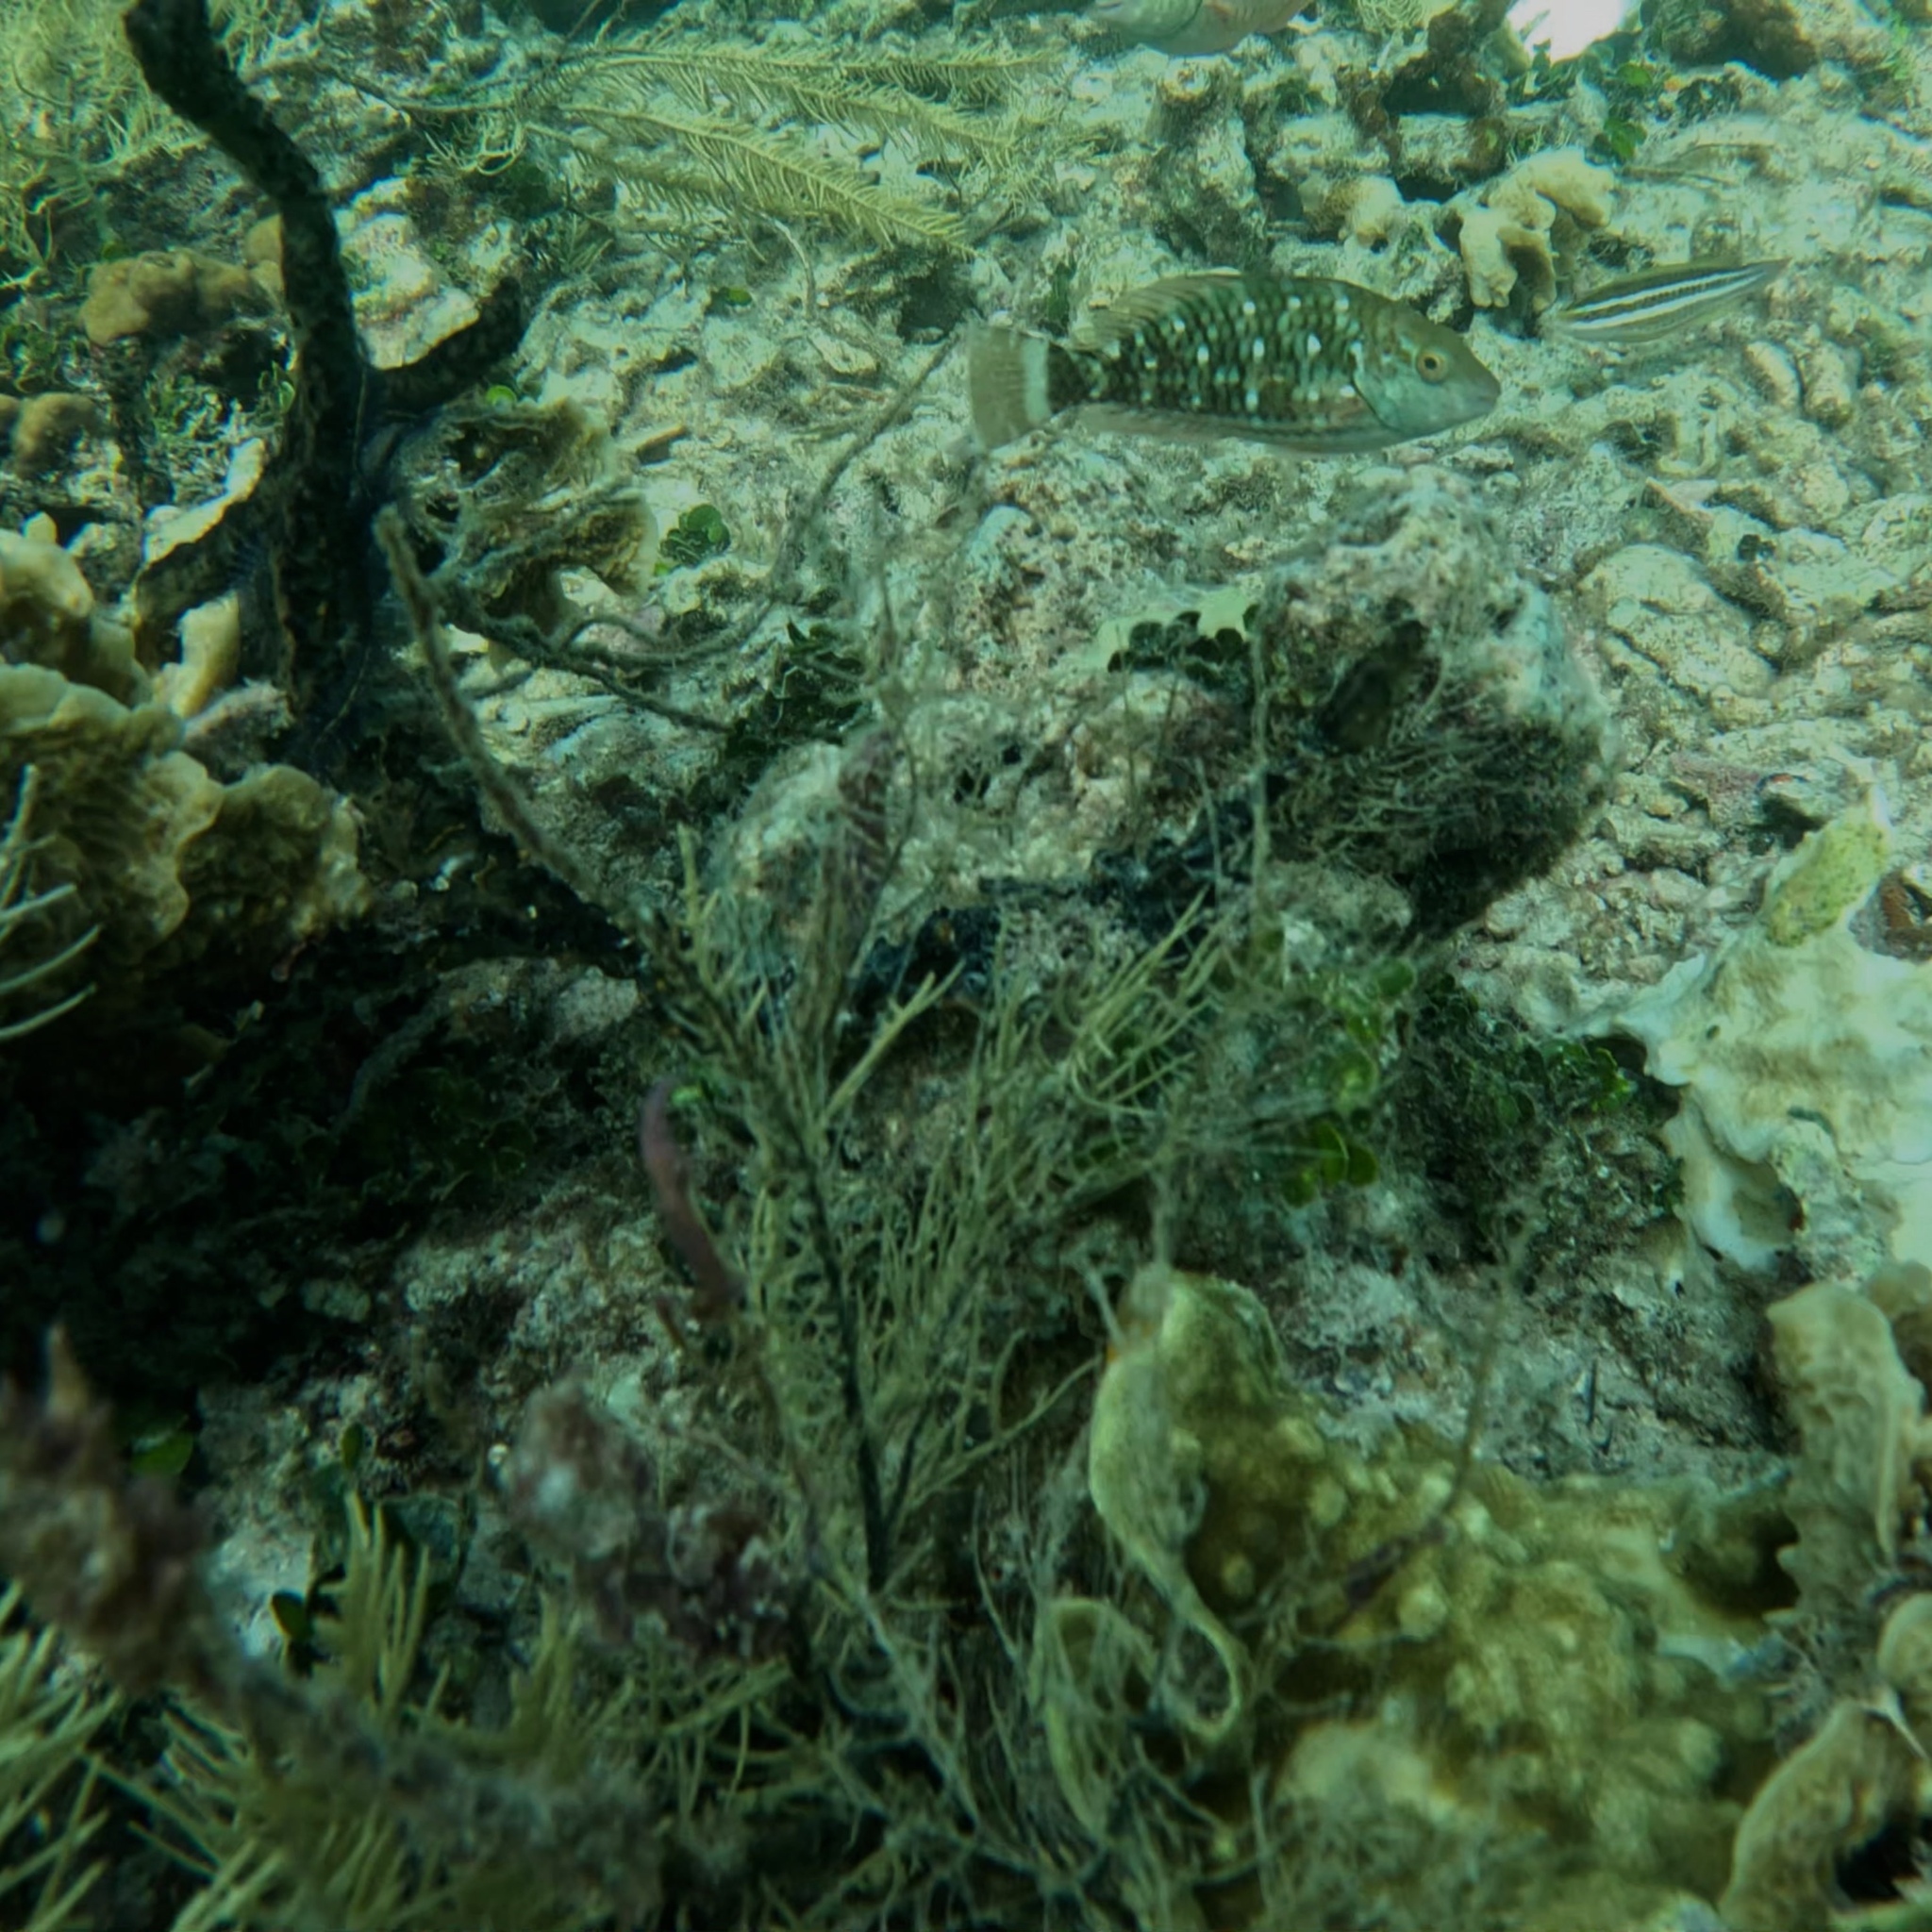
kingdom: Animalia
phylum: Chordata
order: Perciformes
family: Scaridae
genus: Sparisoma
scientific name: Sparisoma viride
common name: Stoplight parrotfish
